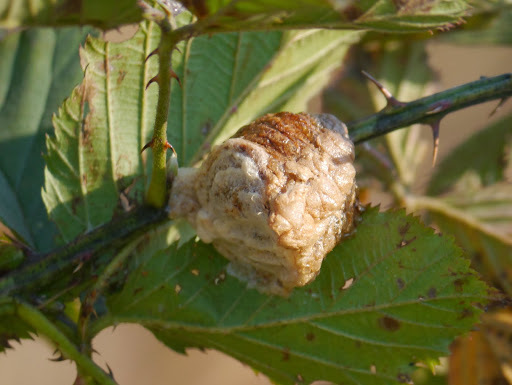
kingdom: Animalia
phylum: Arthropoda
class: Insecta
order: Mantodea
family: Mantidae
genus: Tenodera
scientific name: Tenodera sinensis
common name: Chinese mantis
